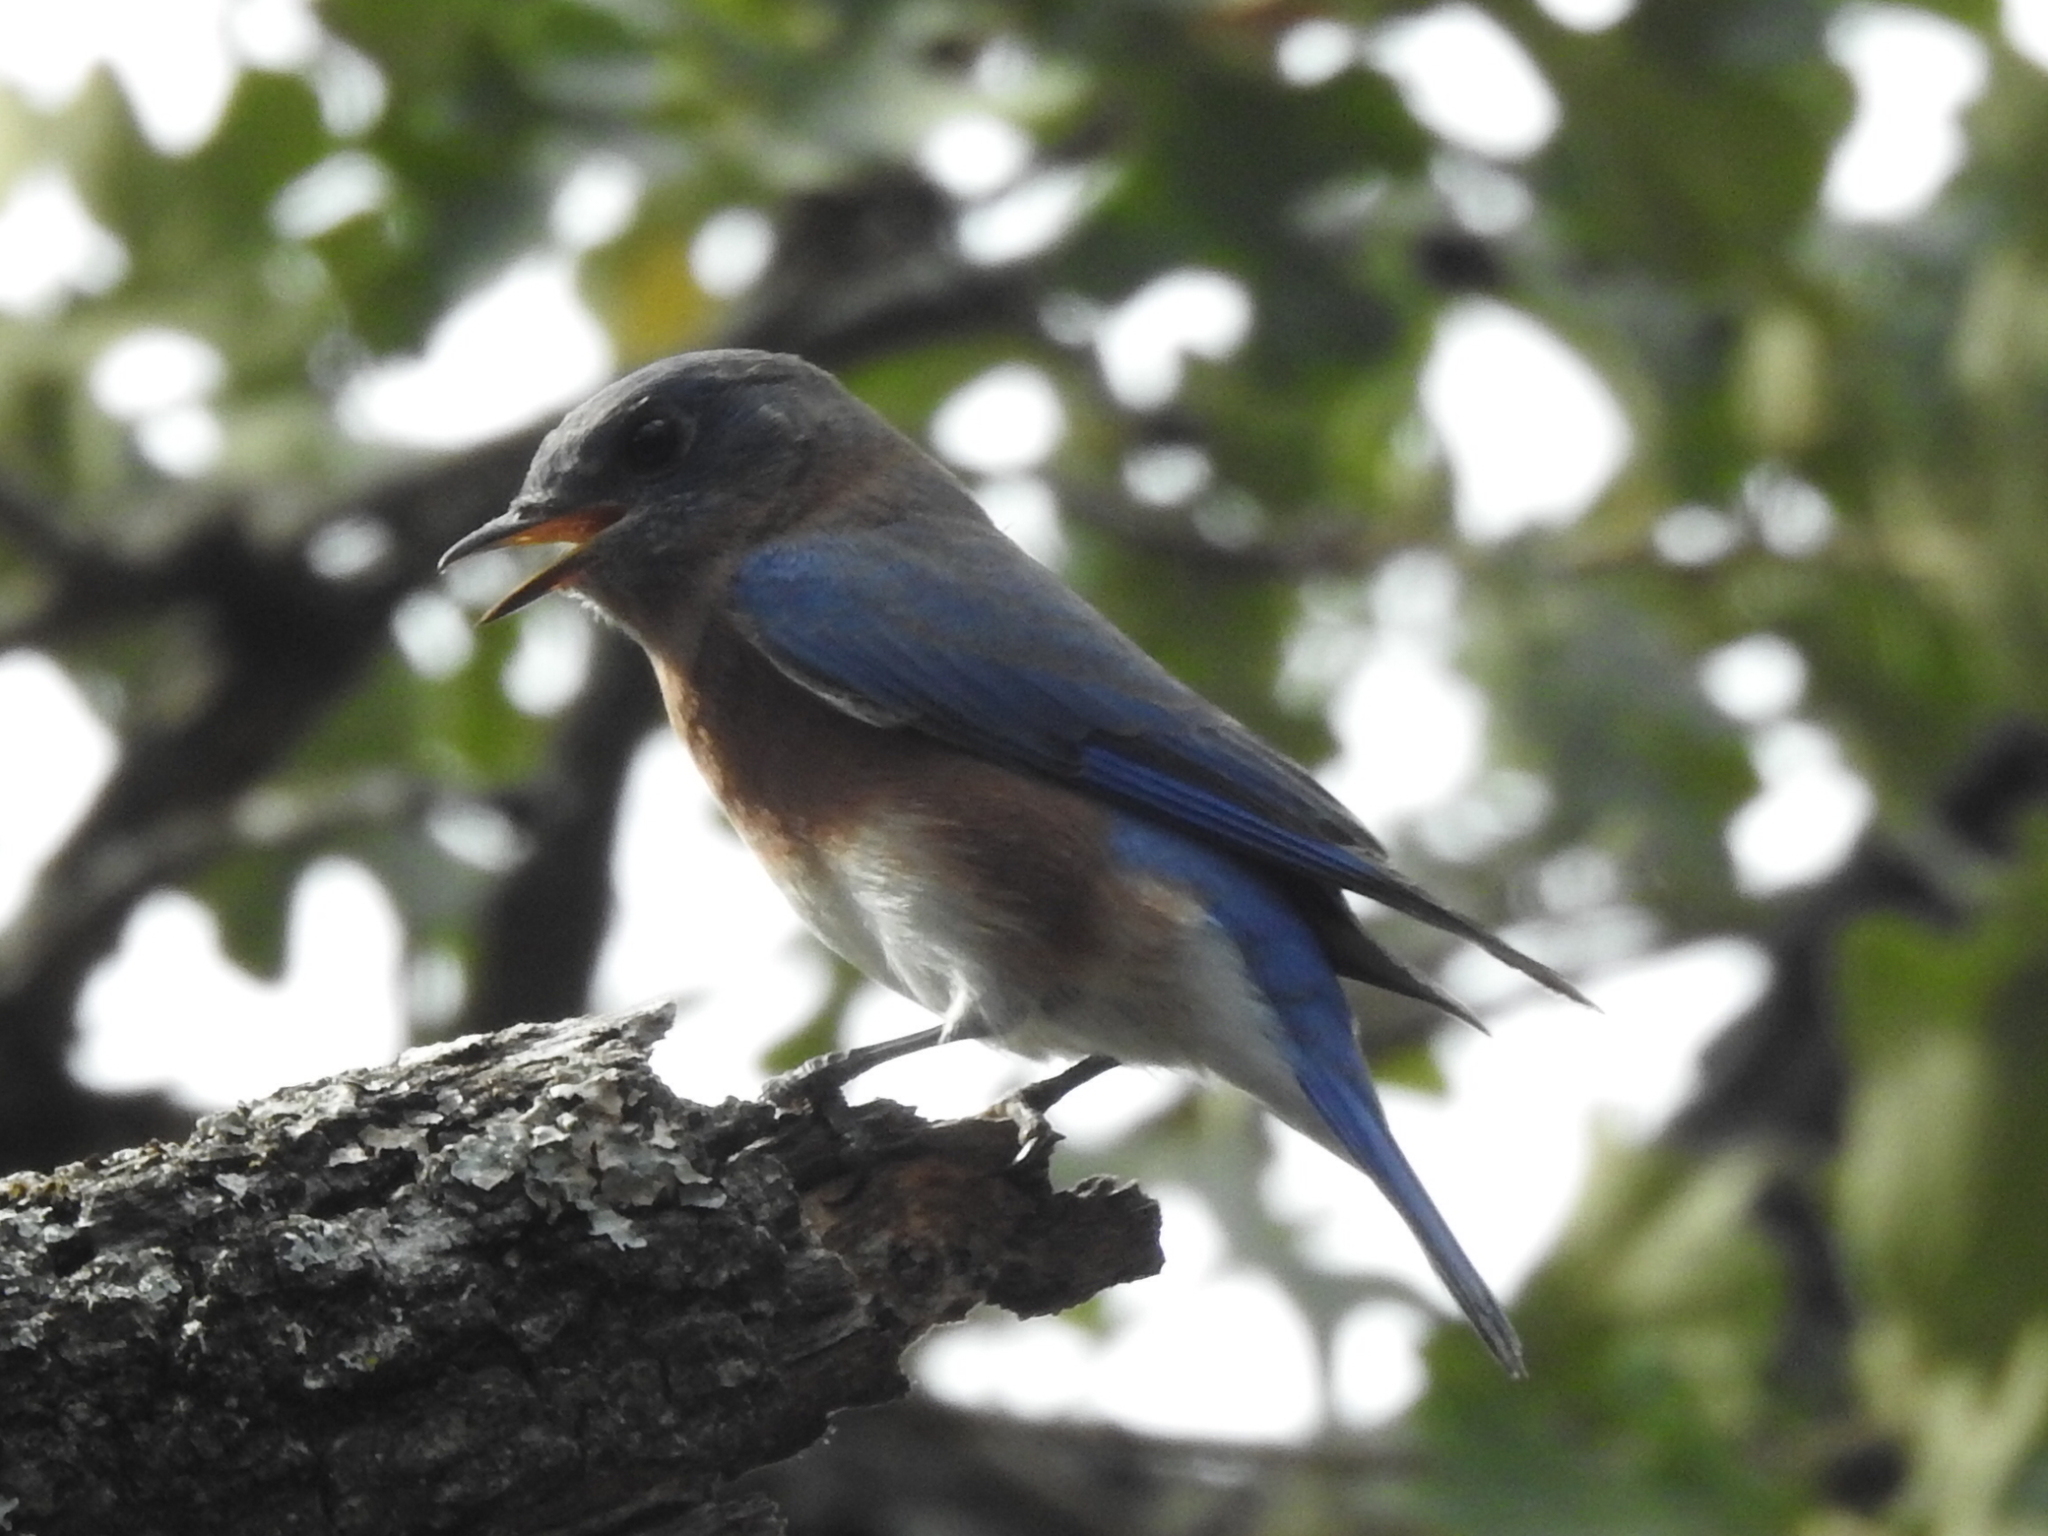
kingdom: Animalia
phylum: Chordata
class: Aves
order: Passeriformes
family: Turdidae
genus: Sialia
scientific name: Sialia sialis
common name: Eastern bluebird
